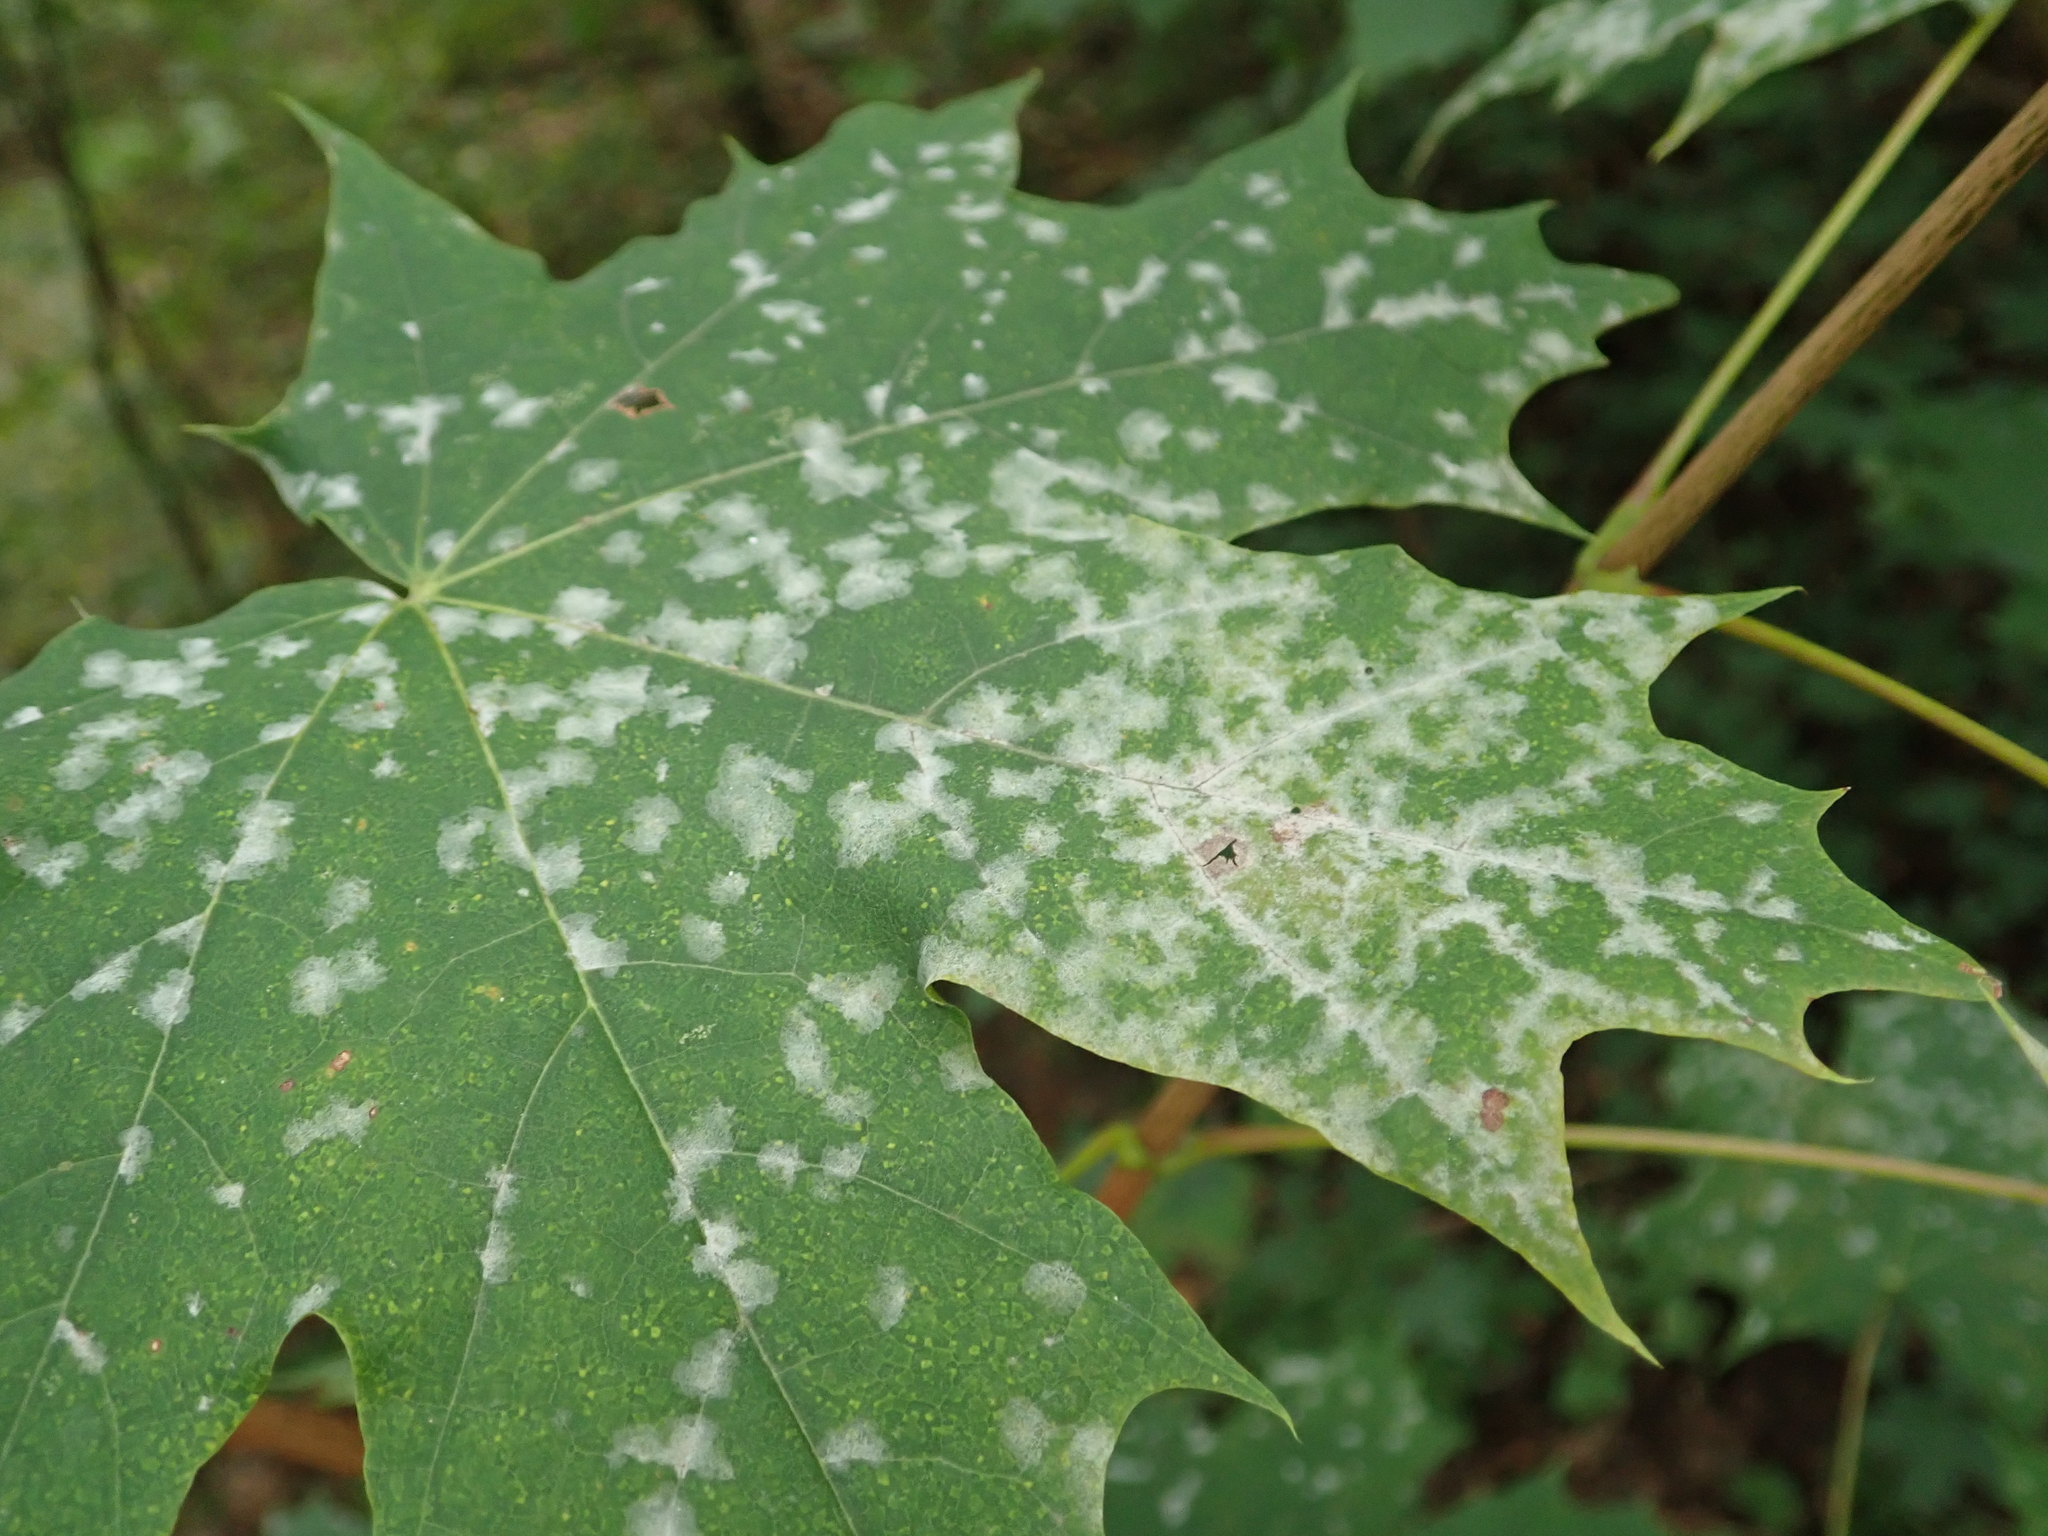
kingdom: Fungi
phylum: Ascomycota
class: Leotiomycetes
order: Helotiales
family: Erysiphaceae
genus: Sawadaea
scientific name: Sawadaea tulasnei
